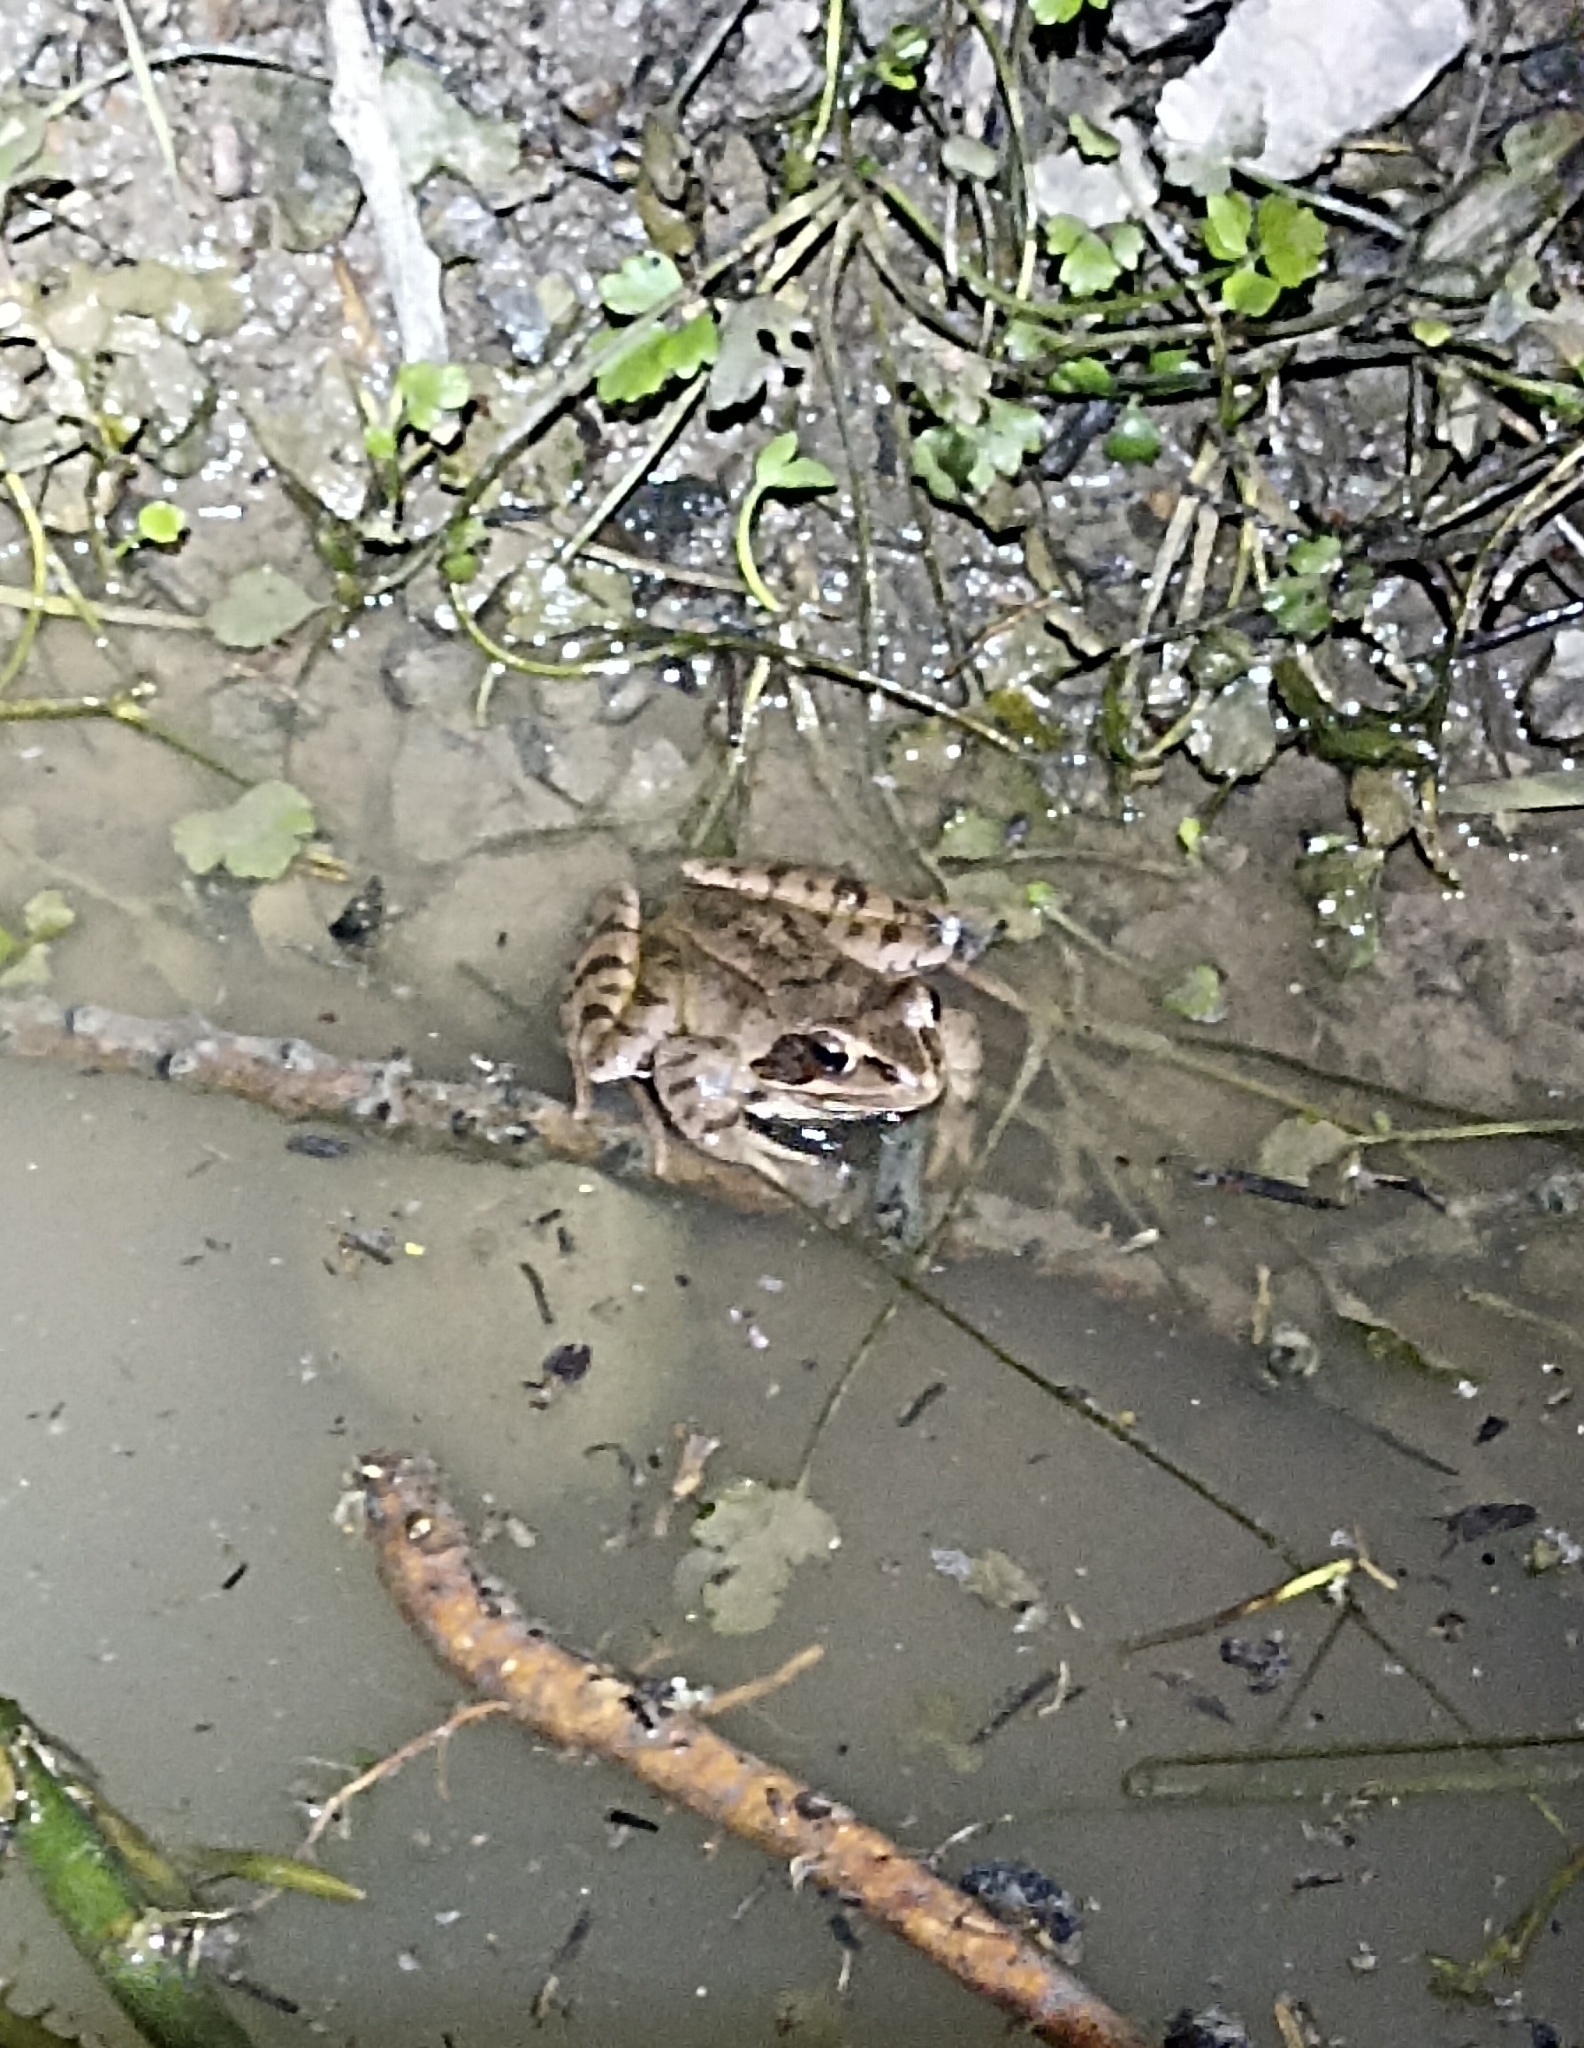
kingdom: Animalia
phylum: Chordata
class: Amphibia
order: Anura
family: Ranidae
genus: Rana
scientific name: Rana dalmatina
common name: Agile frog
